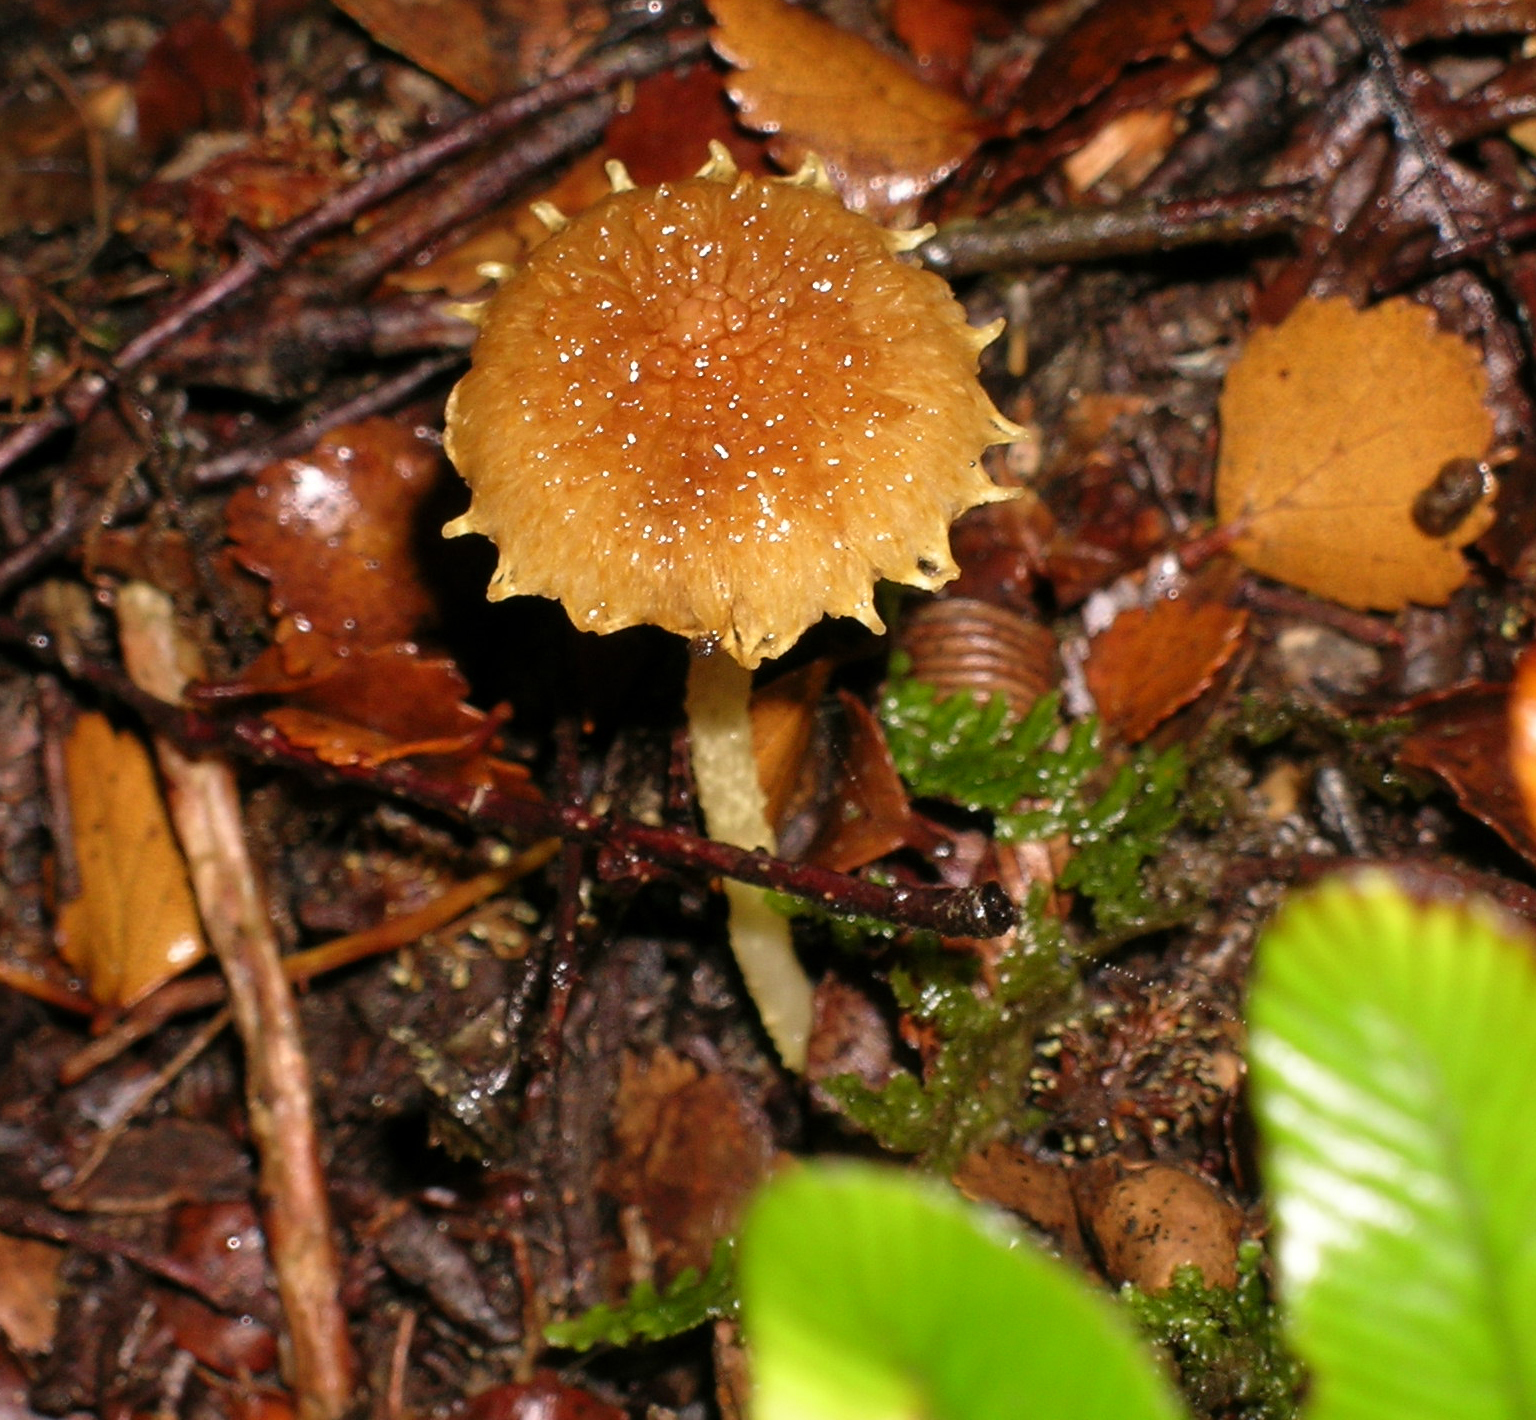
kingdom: Fungi
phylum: Basidiomycota
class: Agaricomycetes
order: Agaricales
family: Inocybaceae
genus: Inocybe
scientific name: Inocybe scabriuscula
